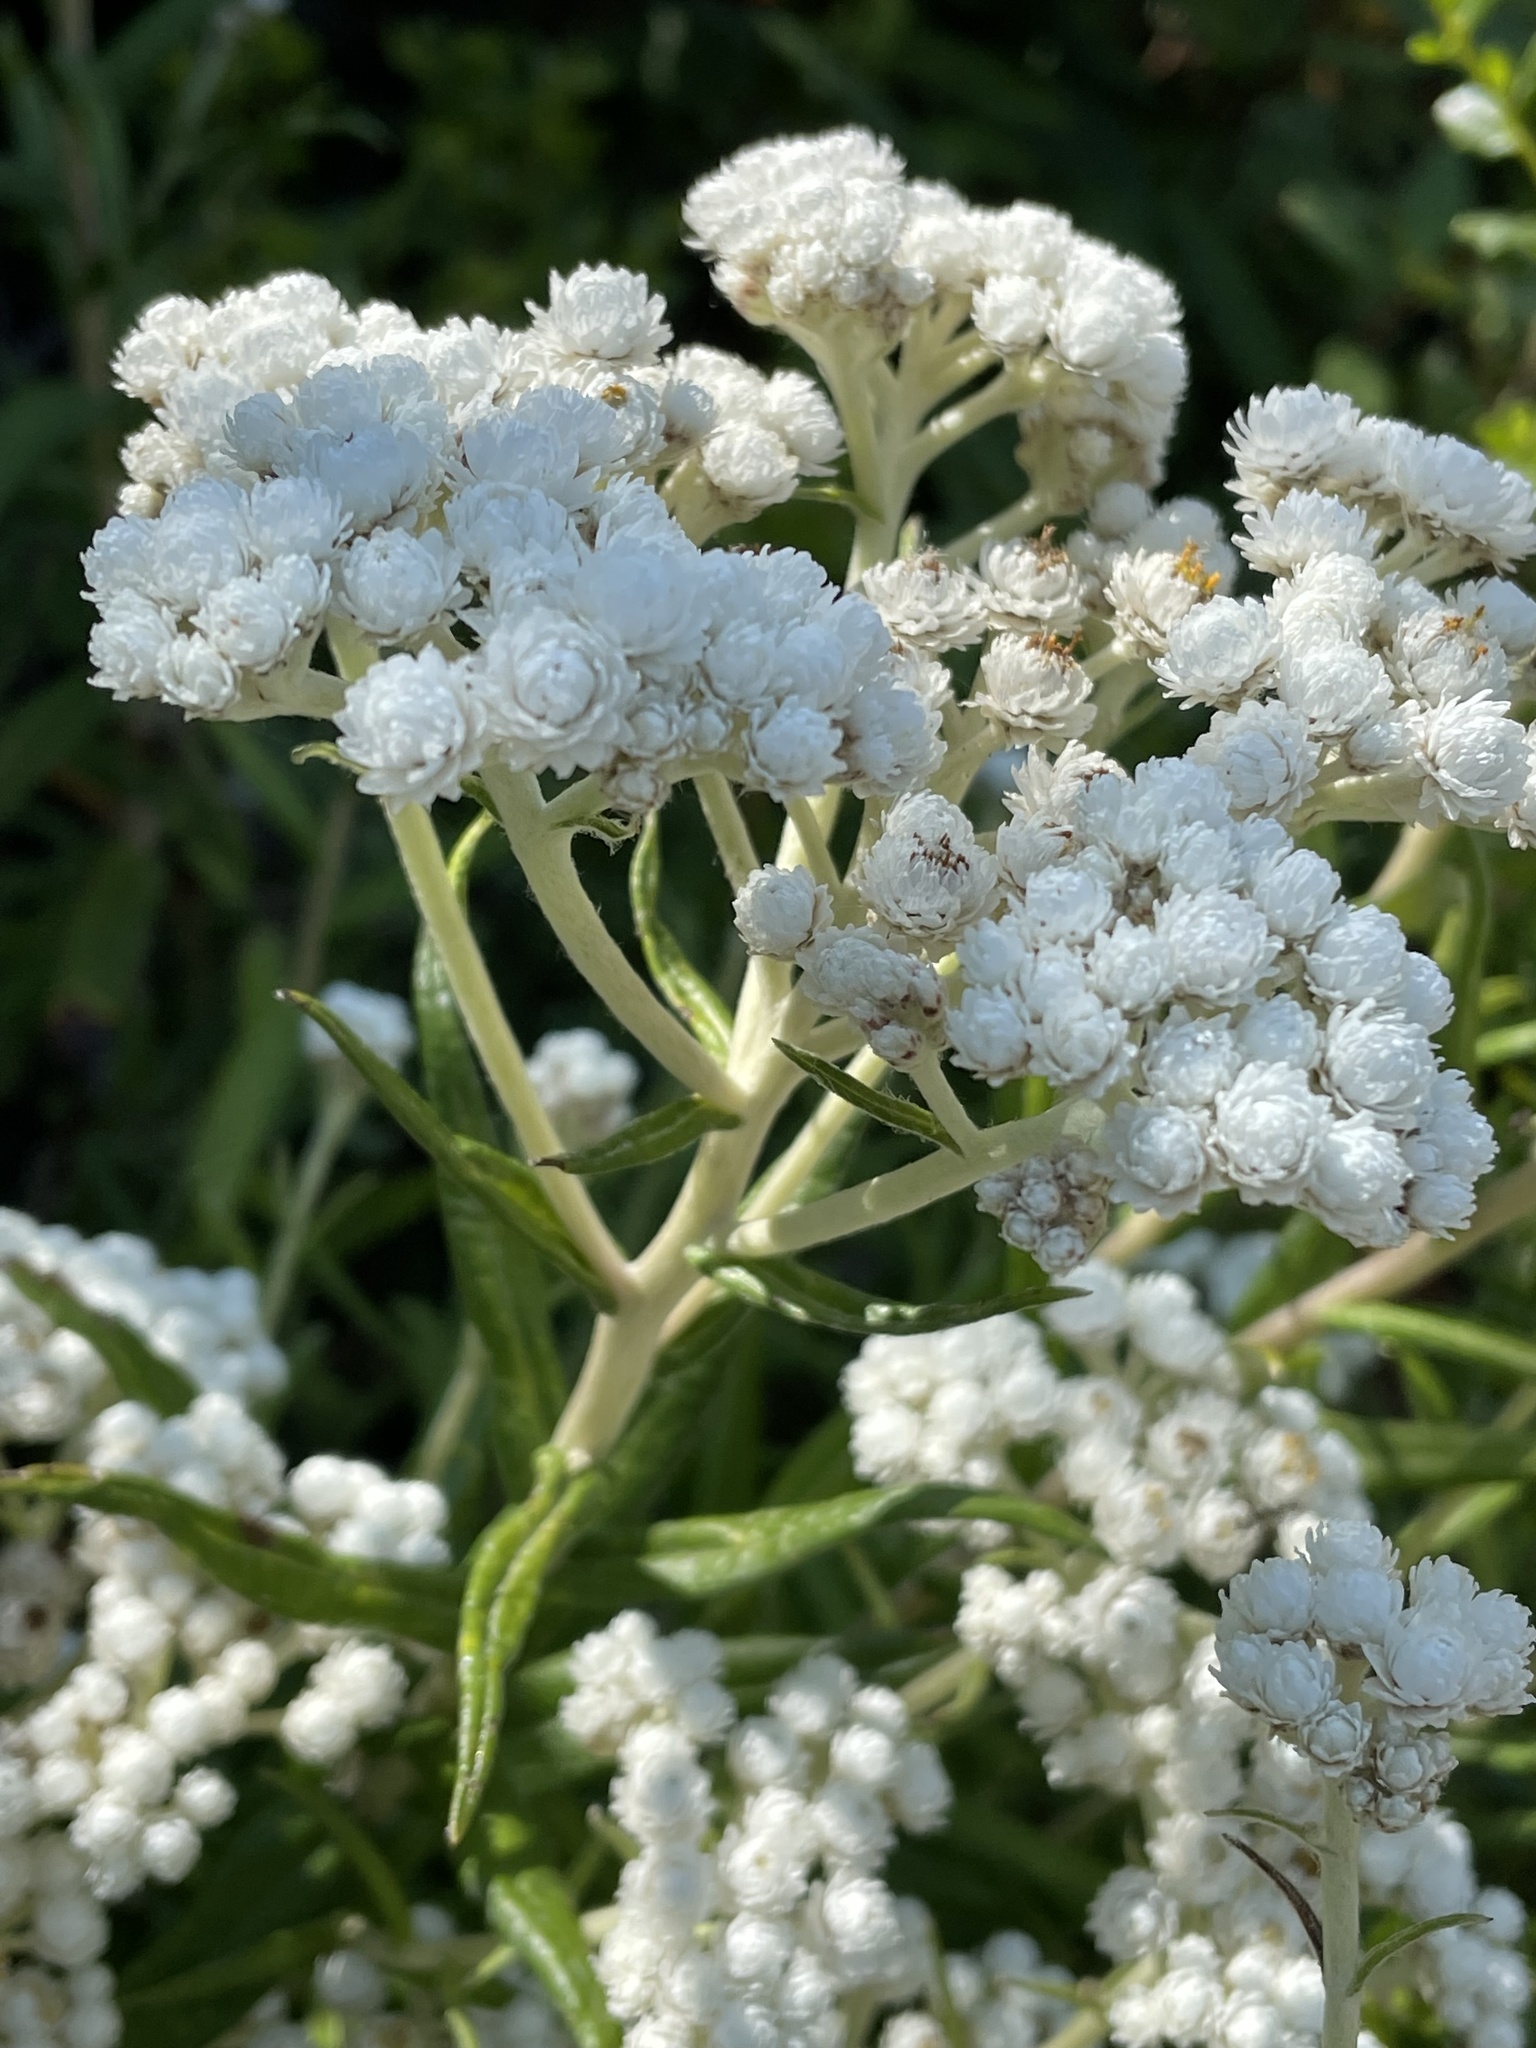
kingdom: Plantae
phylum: Tracheophyta
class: Magnoliopsida
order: Asterales
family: Asteraceae
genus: Anaphalis
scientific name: Anaphalis margaritacea
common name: Pearly everlasting
